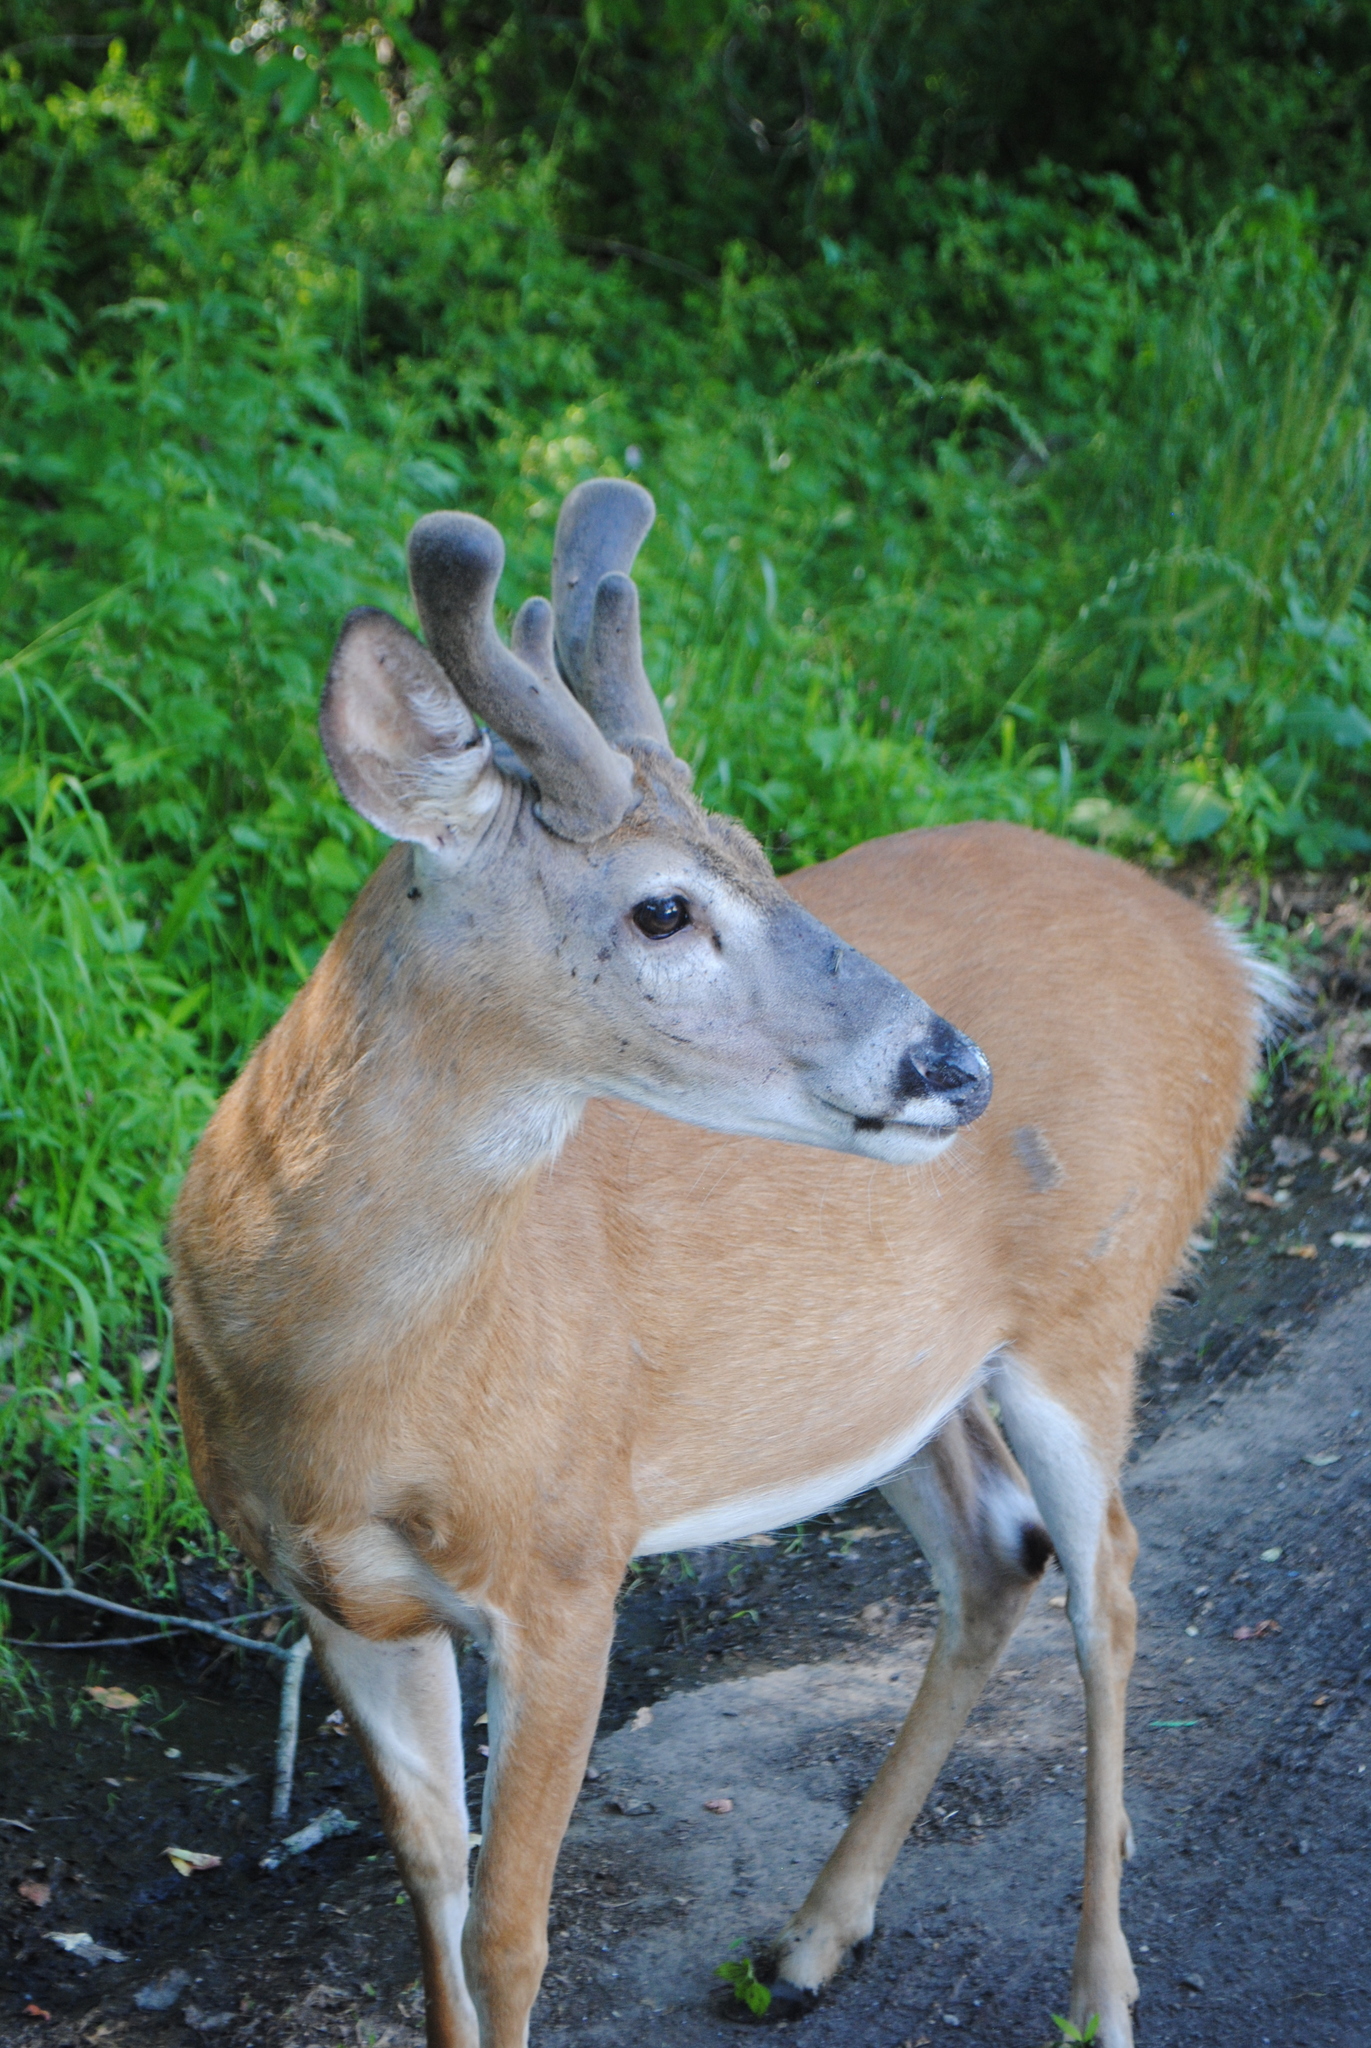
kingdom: Animalia
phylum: Chordata
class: Mammalia
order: Artiodactyla
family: Cervidae
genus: Odocoileus
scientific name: Odocoileus virginianus
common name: White-tailed deer
